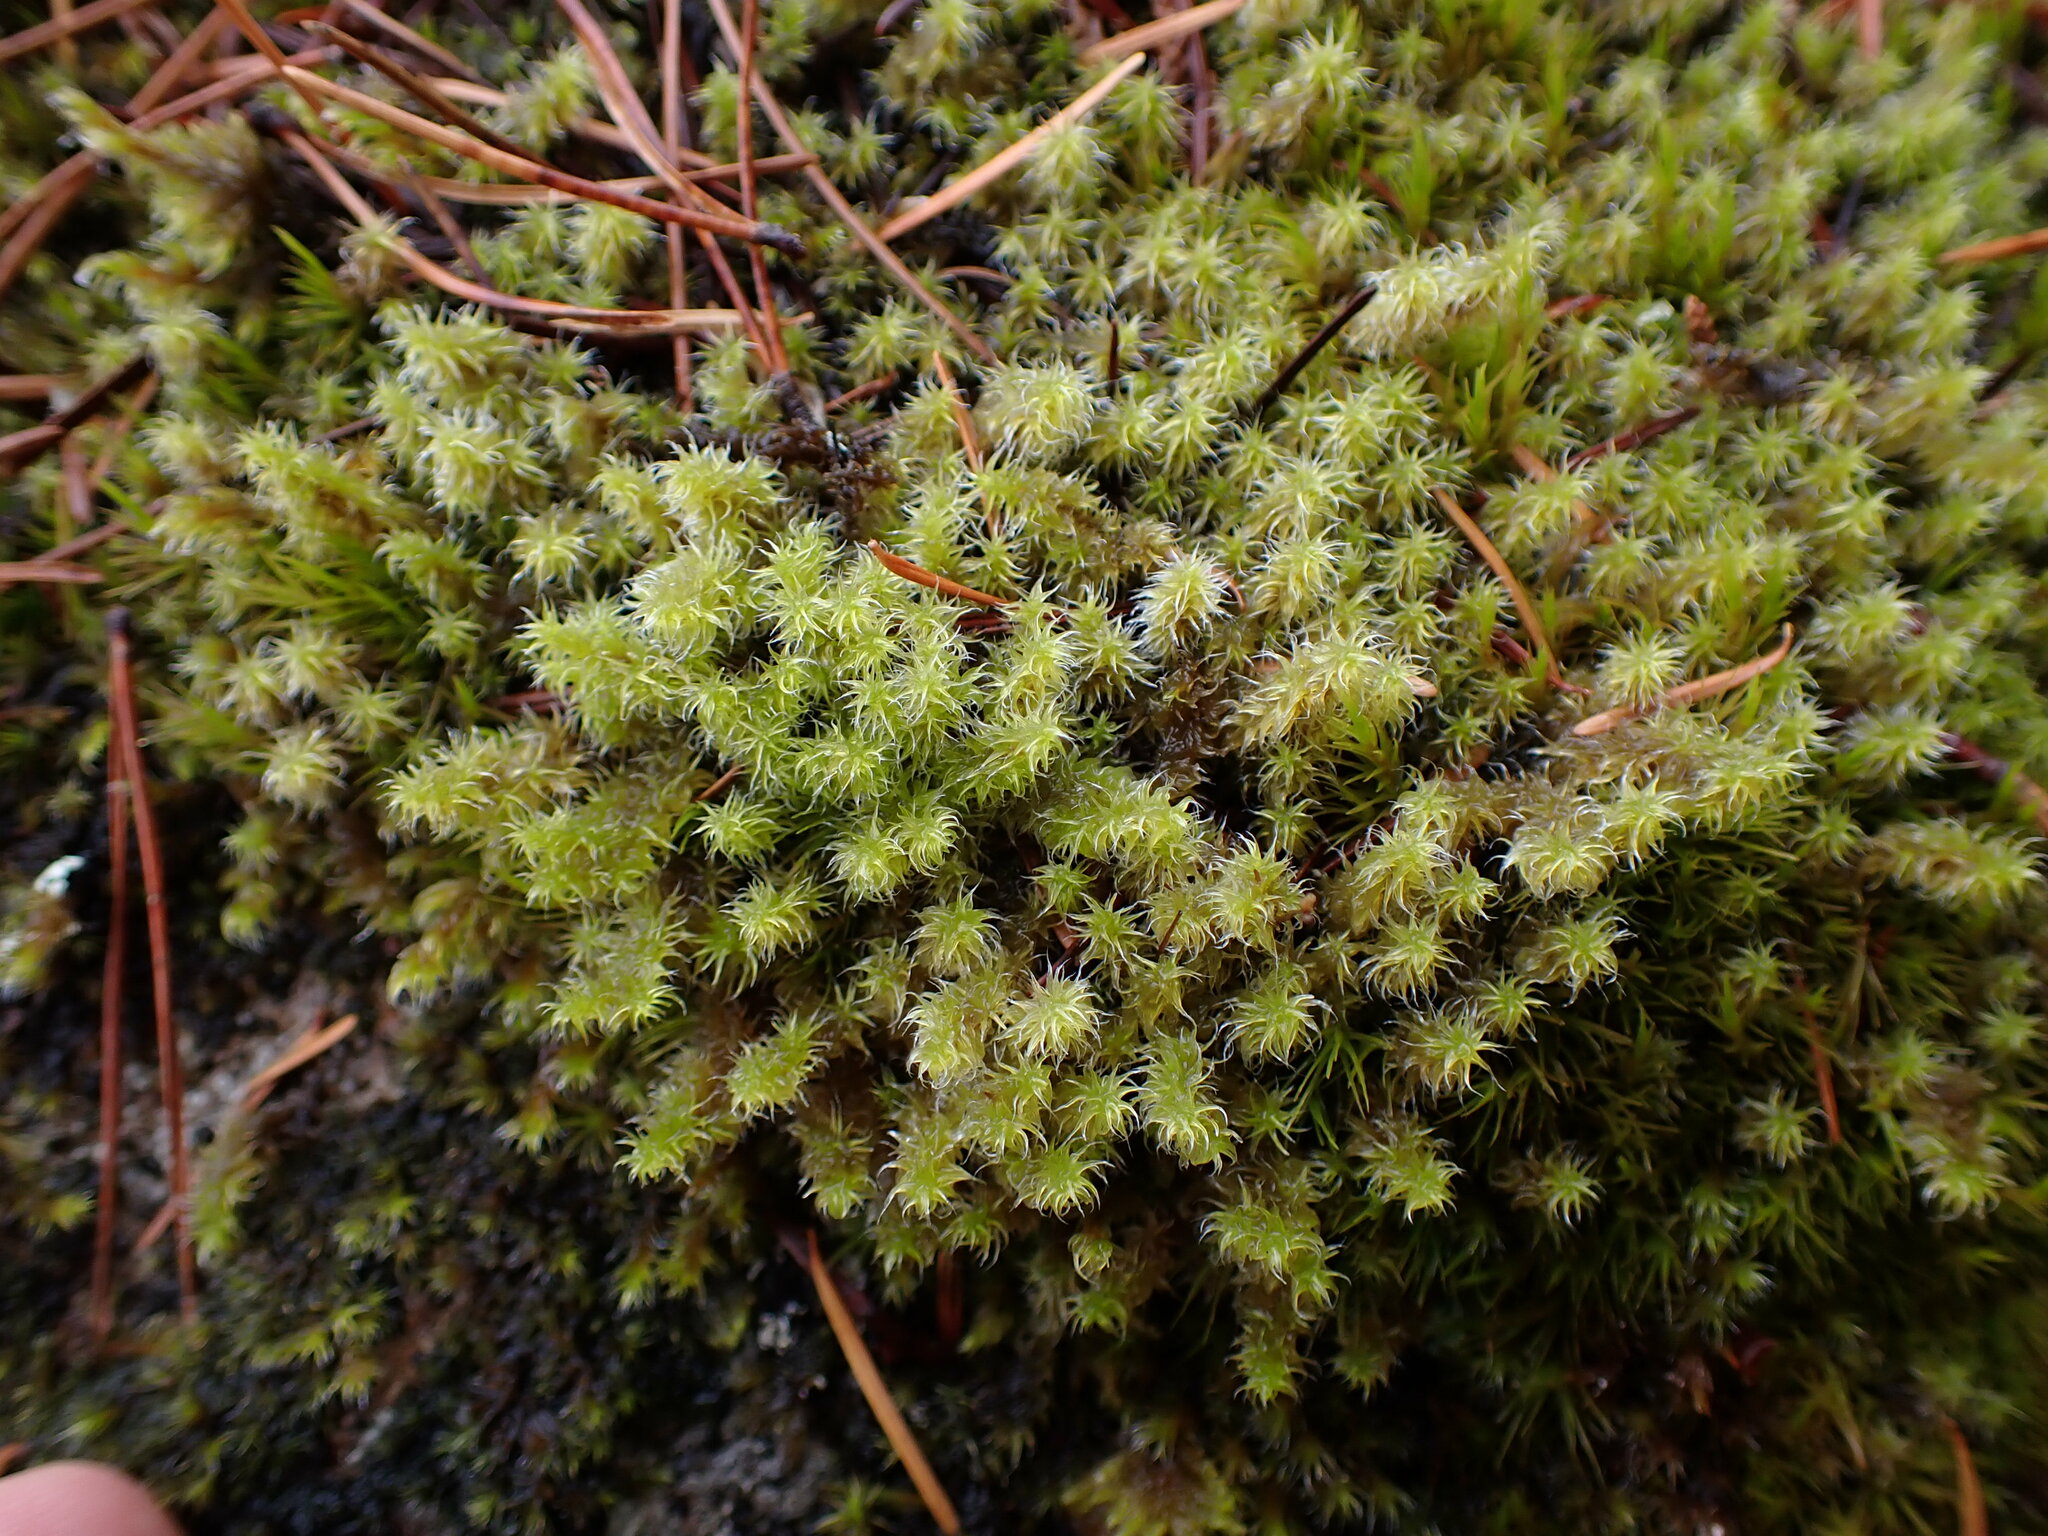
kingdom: Plantae
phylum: Bryophyta
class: Bryopsida
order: Grimmiales
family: Grimmiaceae
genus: Niphotrichum
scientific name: Niphotrichum elongatum
